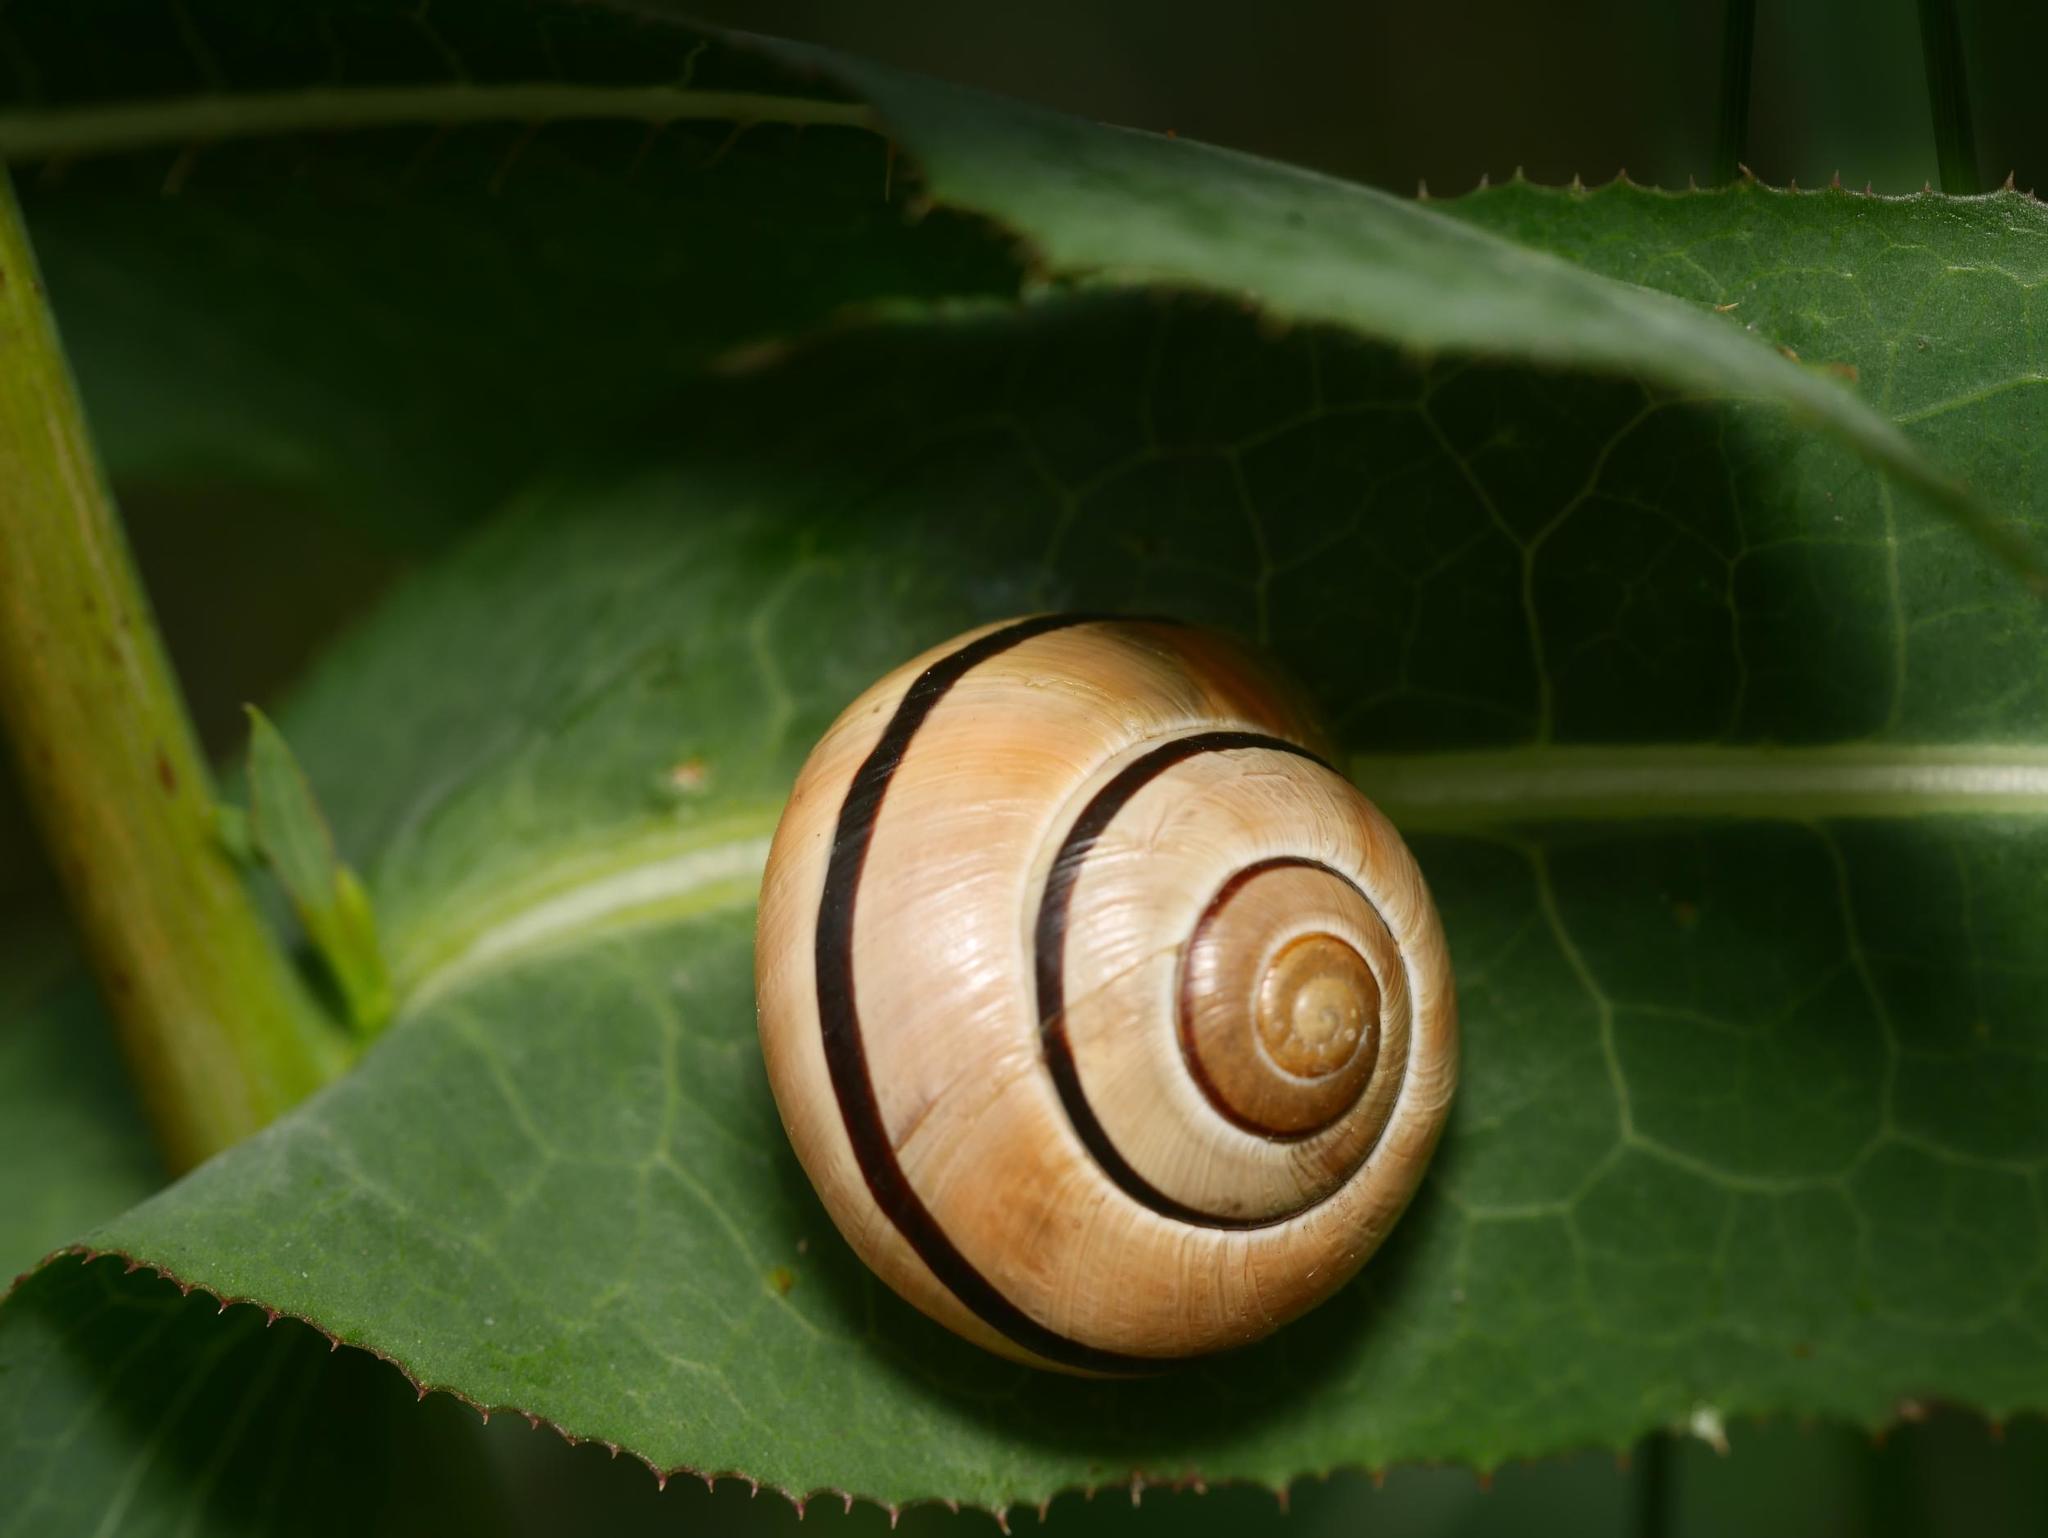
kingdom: Animalia
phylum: Mollusca
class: Gastropoda
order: Stylommatophora
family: Helicidae
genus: Cepaea
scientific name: Cepaea nemoralis
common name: Grovesnail
